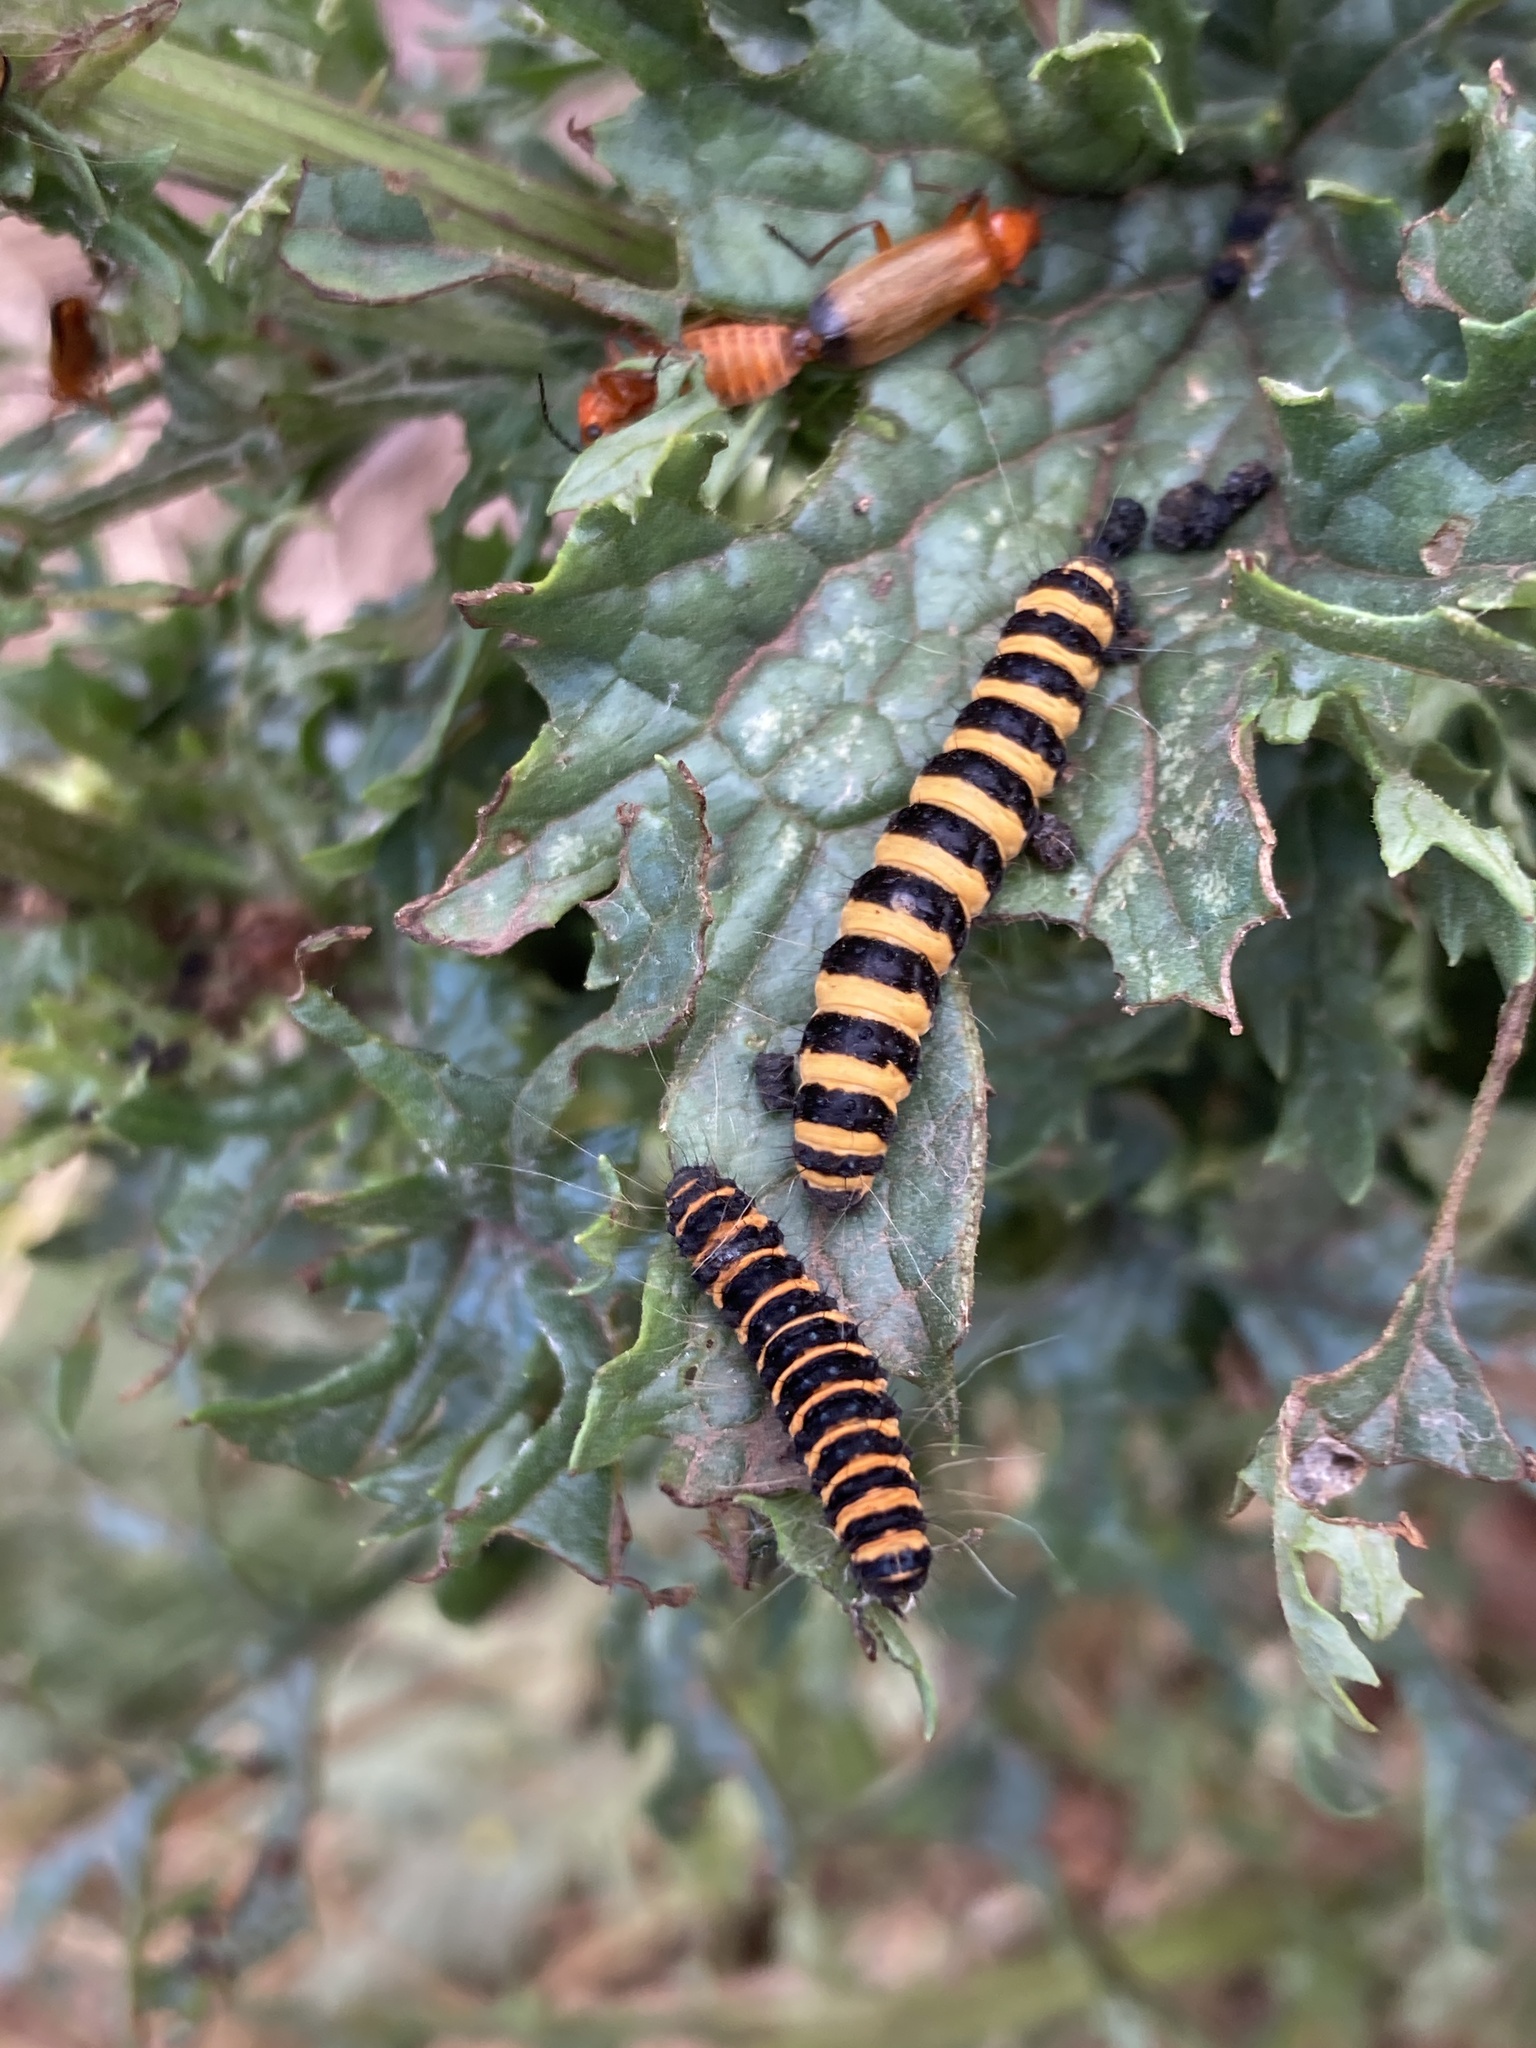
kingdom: Animalia
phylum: Arthropoda
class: Insecta
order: Lepidoptera
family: Erebidae
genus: Tyria
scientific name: Tyria jacobaeae
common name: Cinnabar
